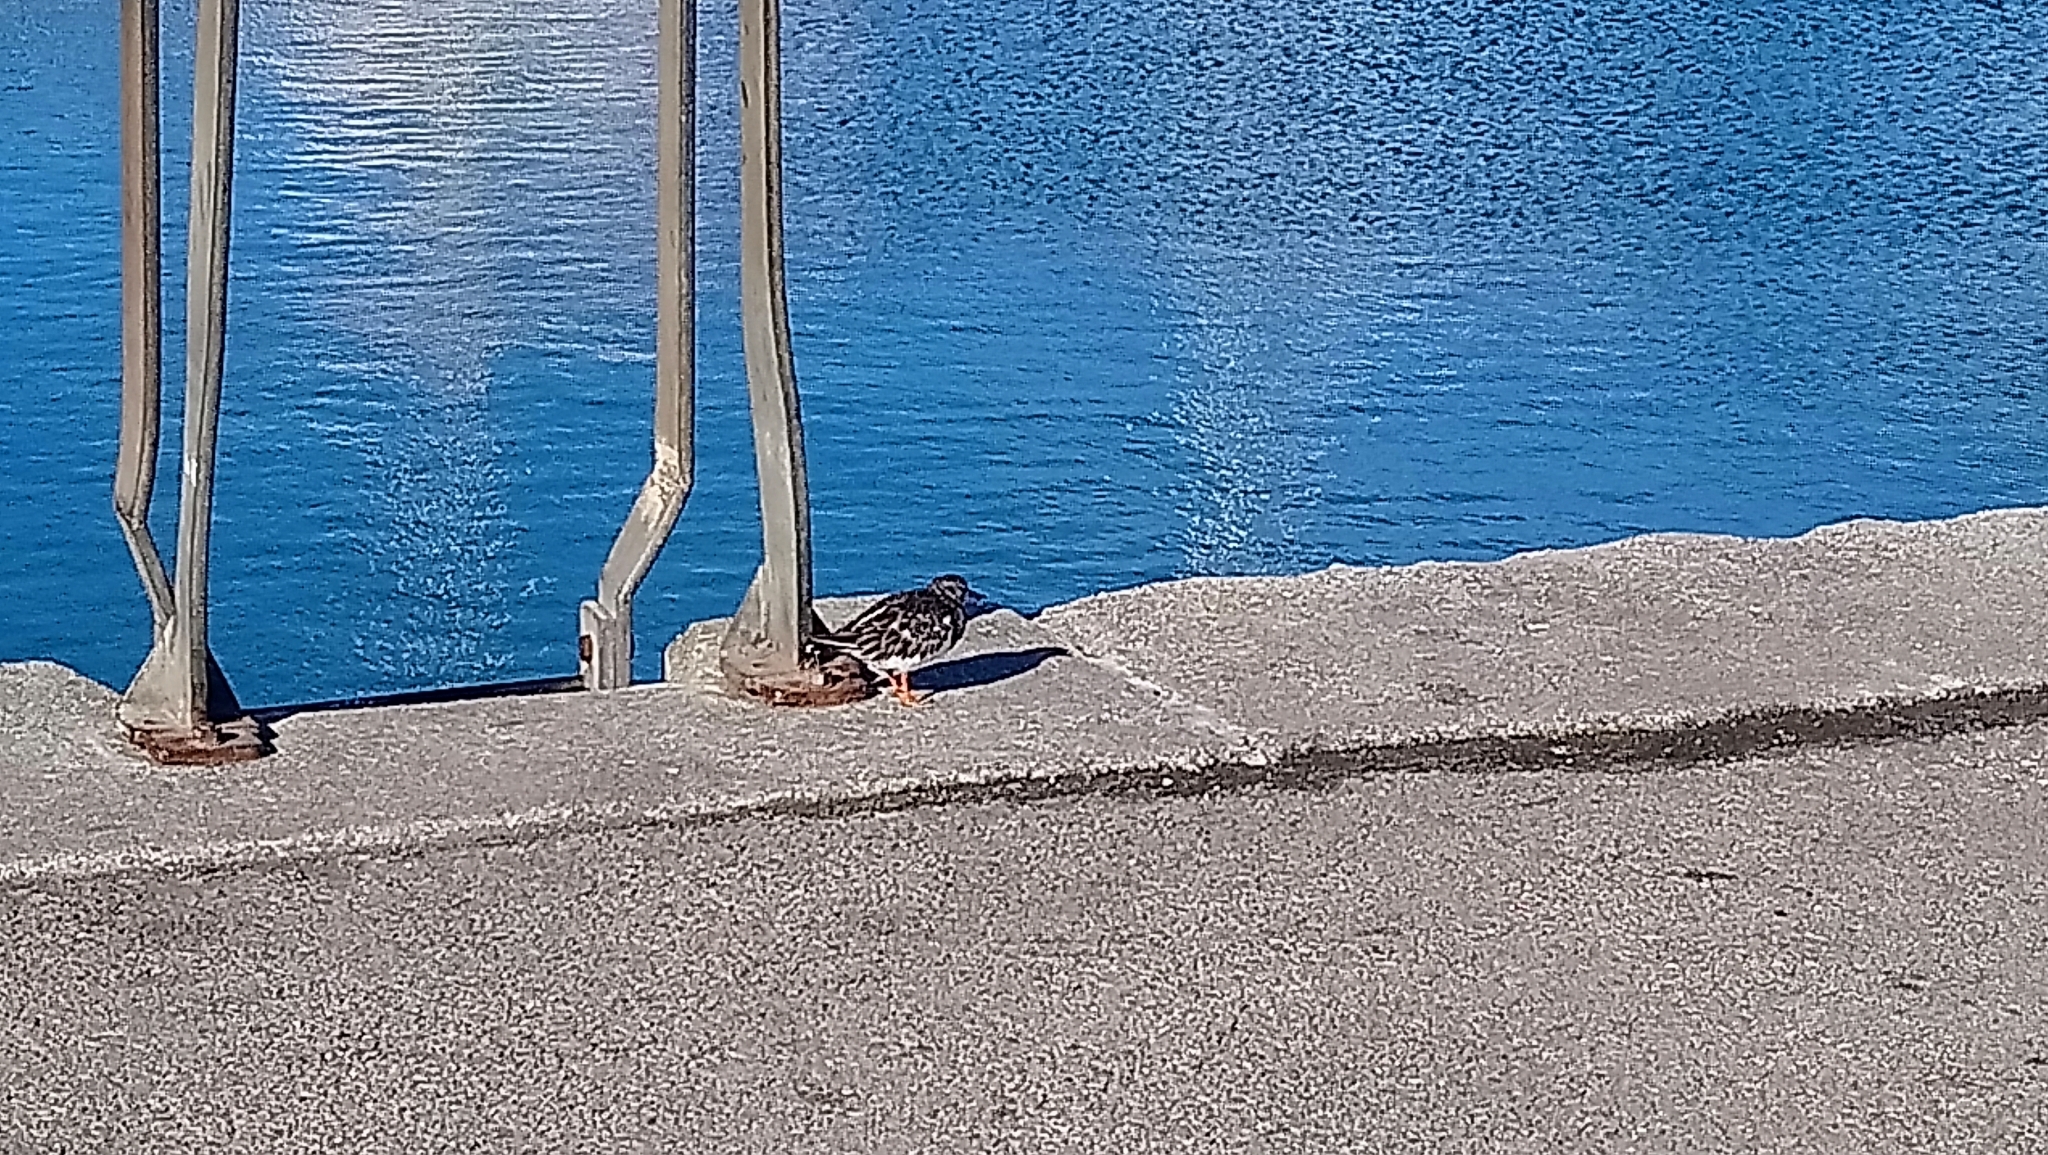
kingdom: Animalia
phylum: Chordata
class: Aves
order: Charadriiformes
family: Scolopacidae
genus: Arenaria
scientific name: Arenaria interpres
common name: Ruddy turnstone
